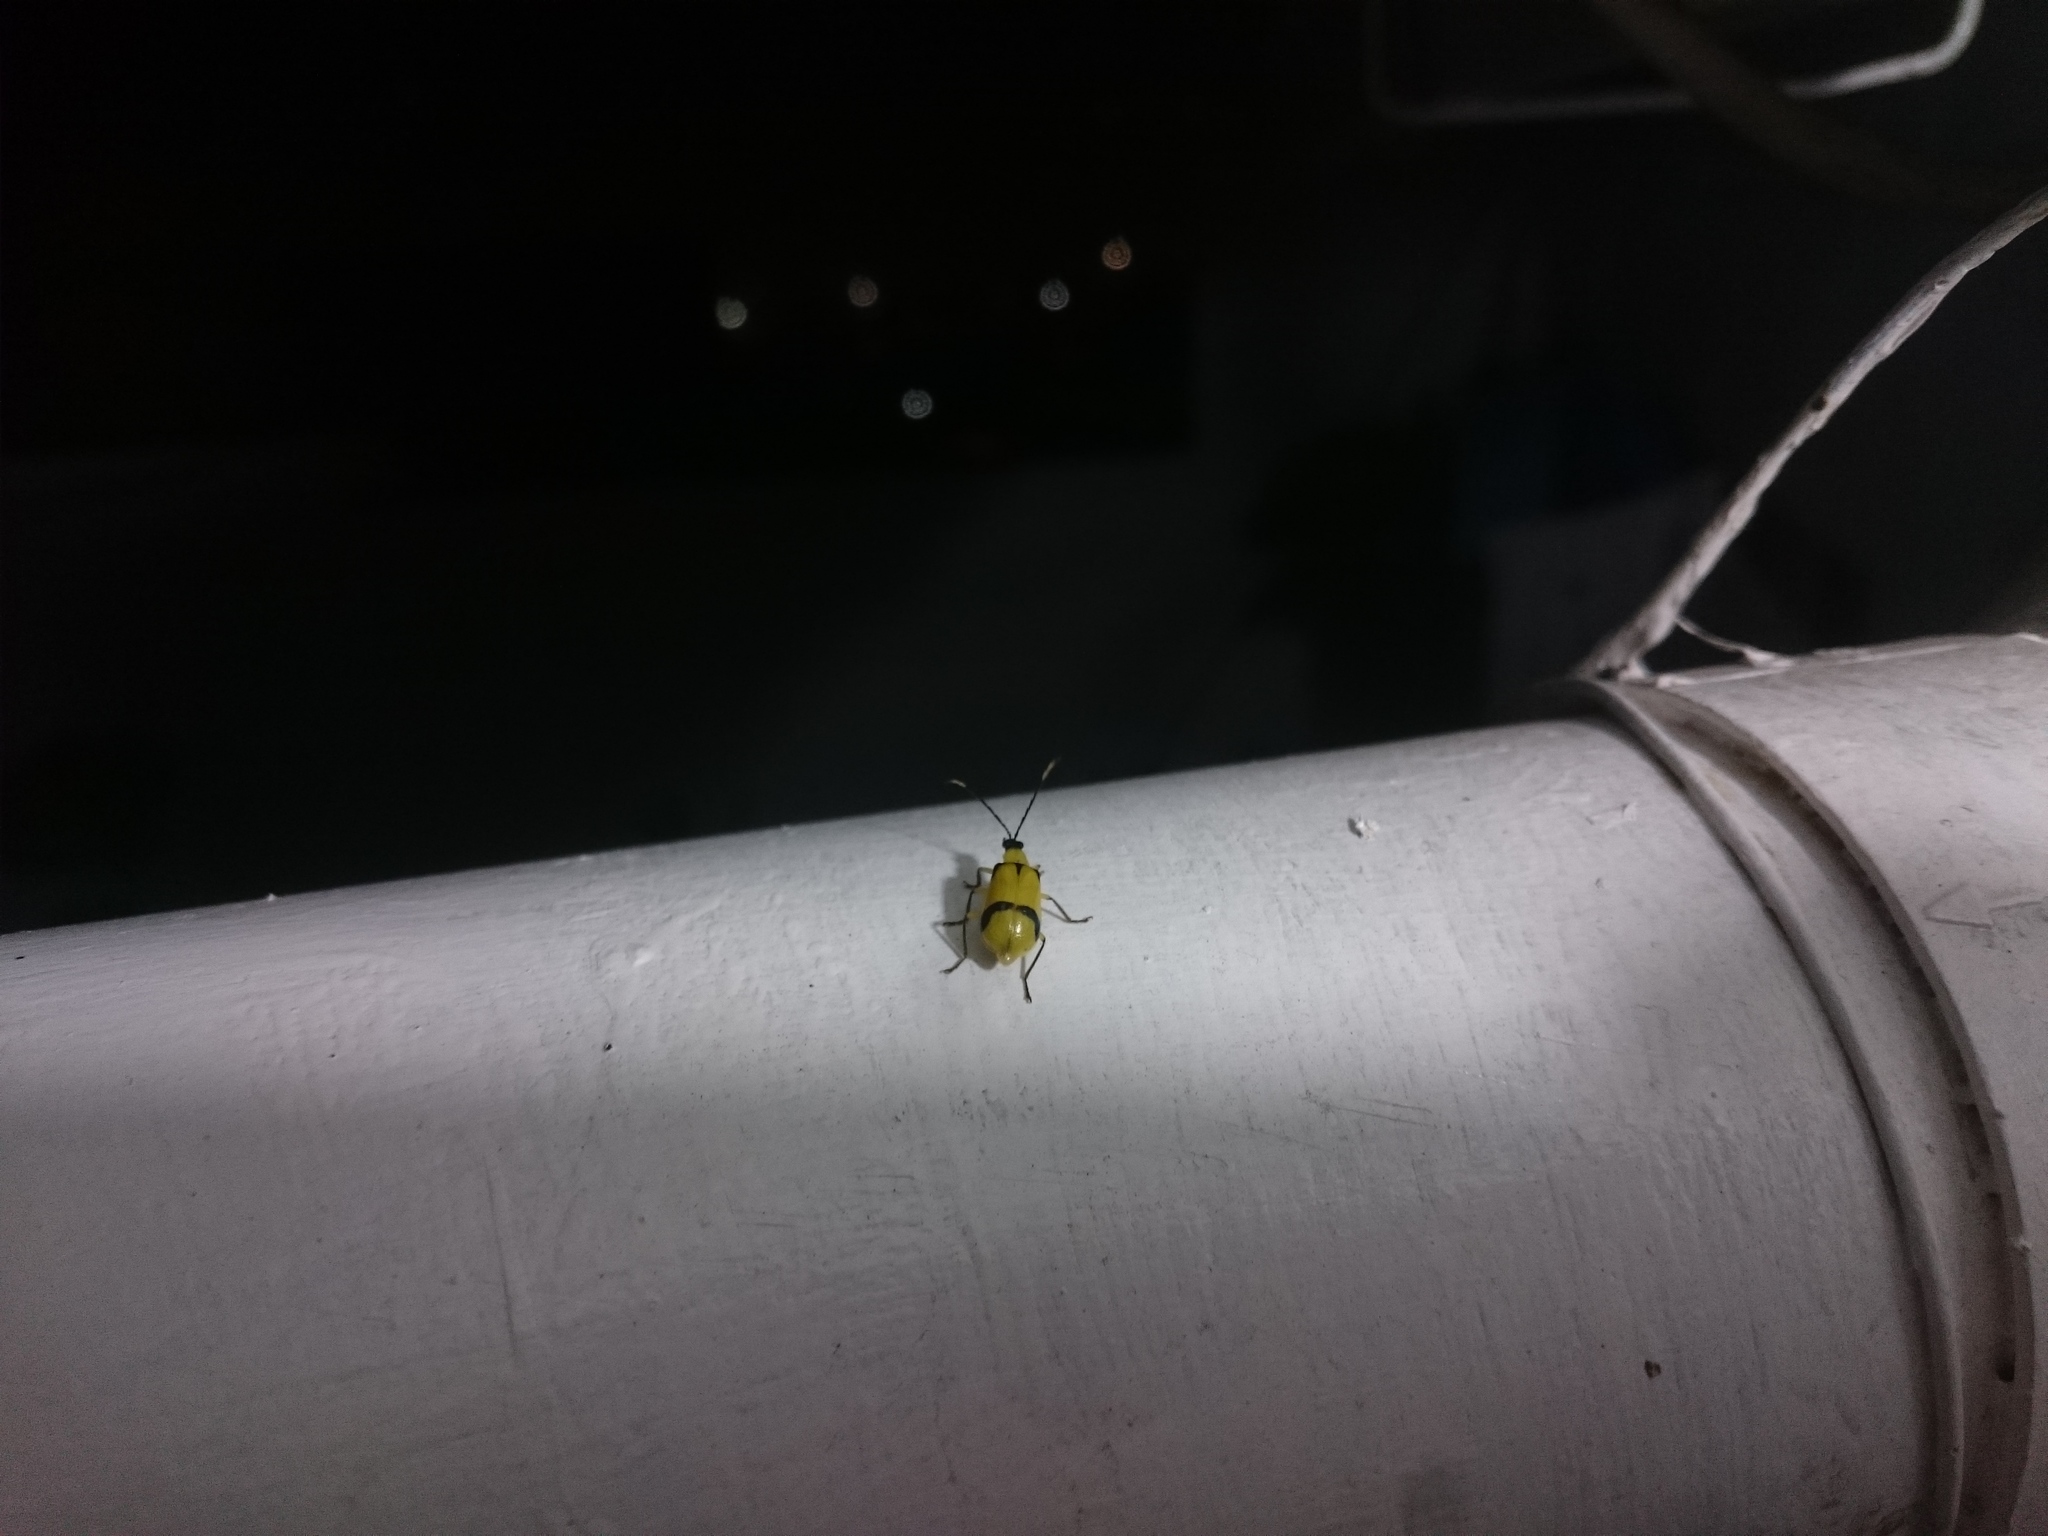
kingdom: Animalia
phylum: Arthropoda
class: Insecta
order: Coleoptera
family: Chrysomelidae
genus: Diabrotica
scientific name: Diabrotica
